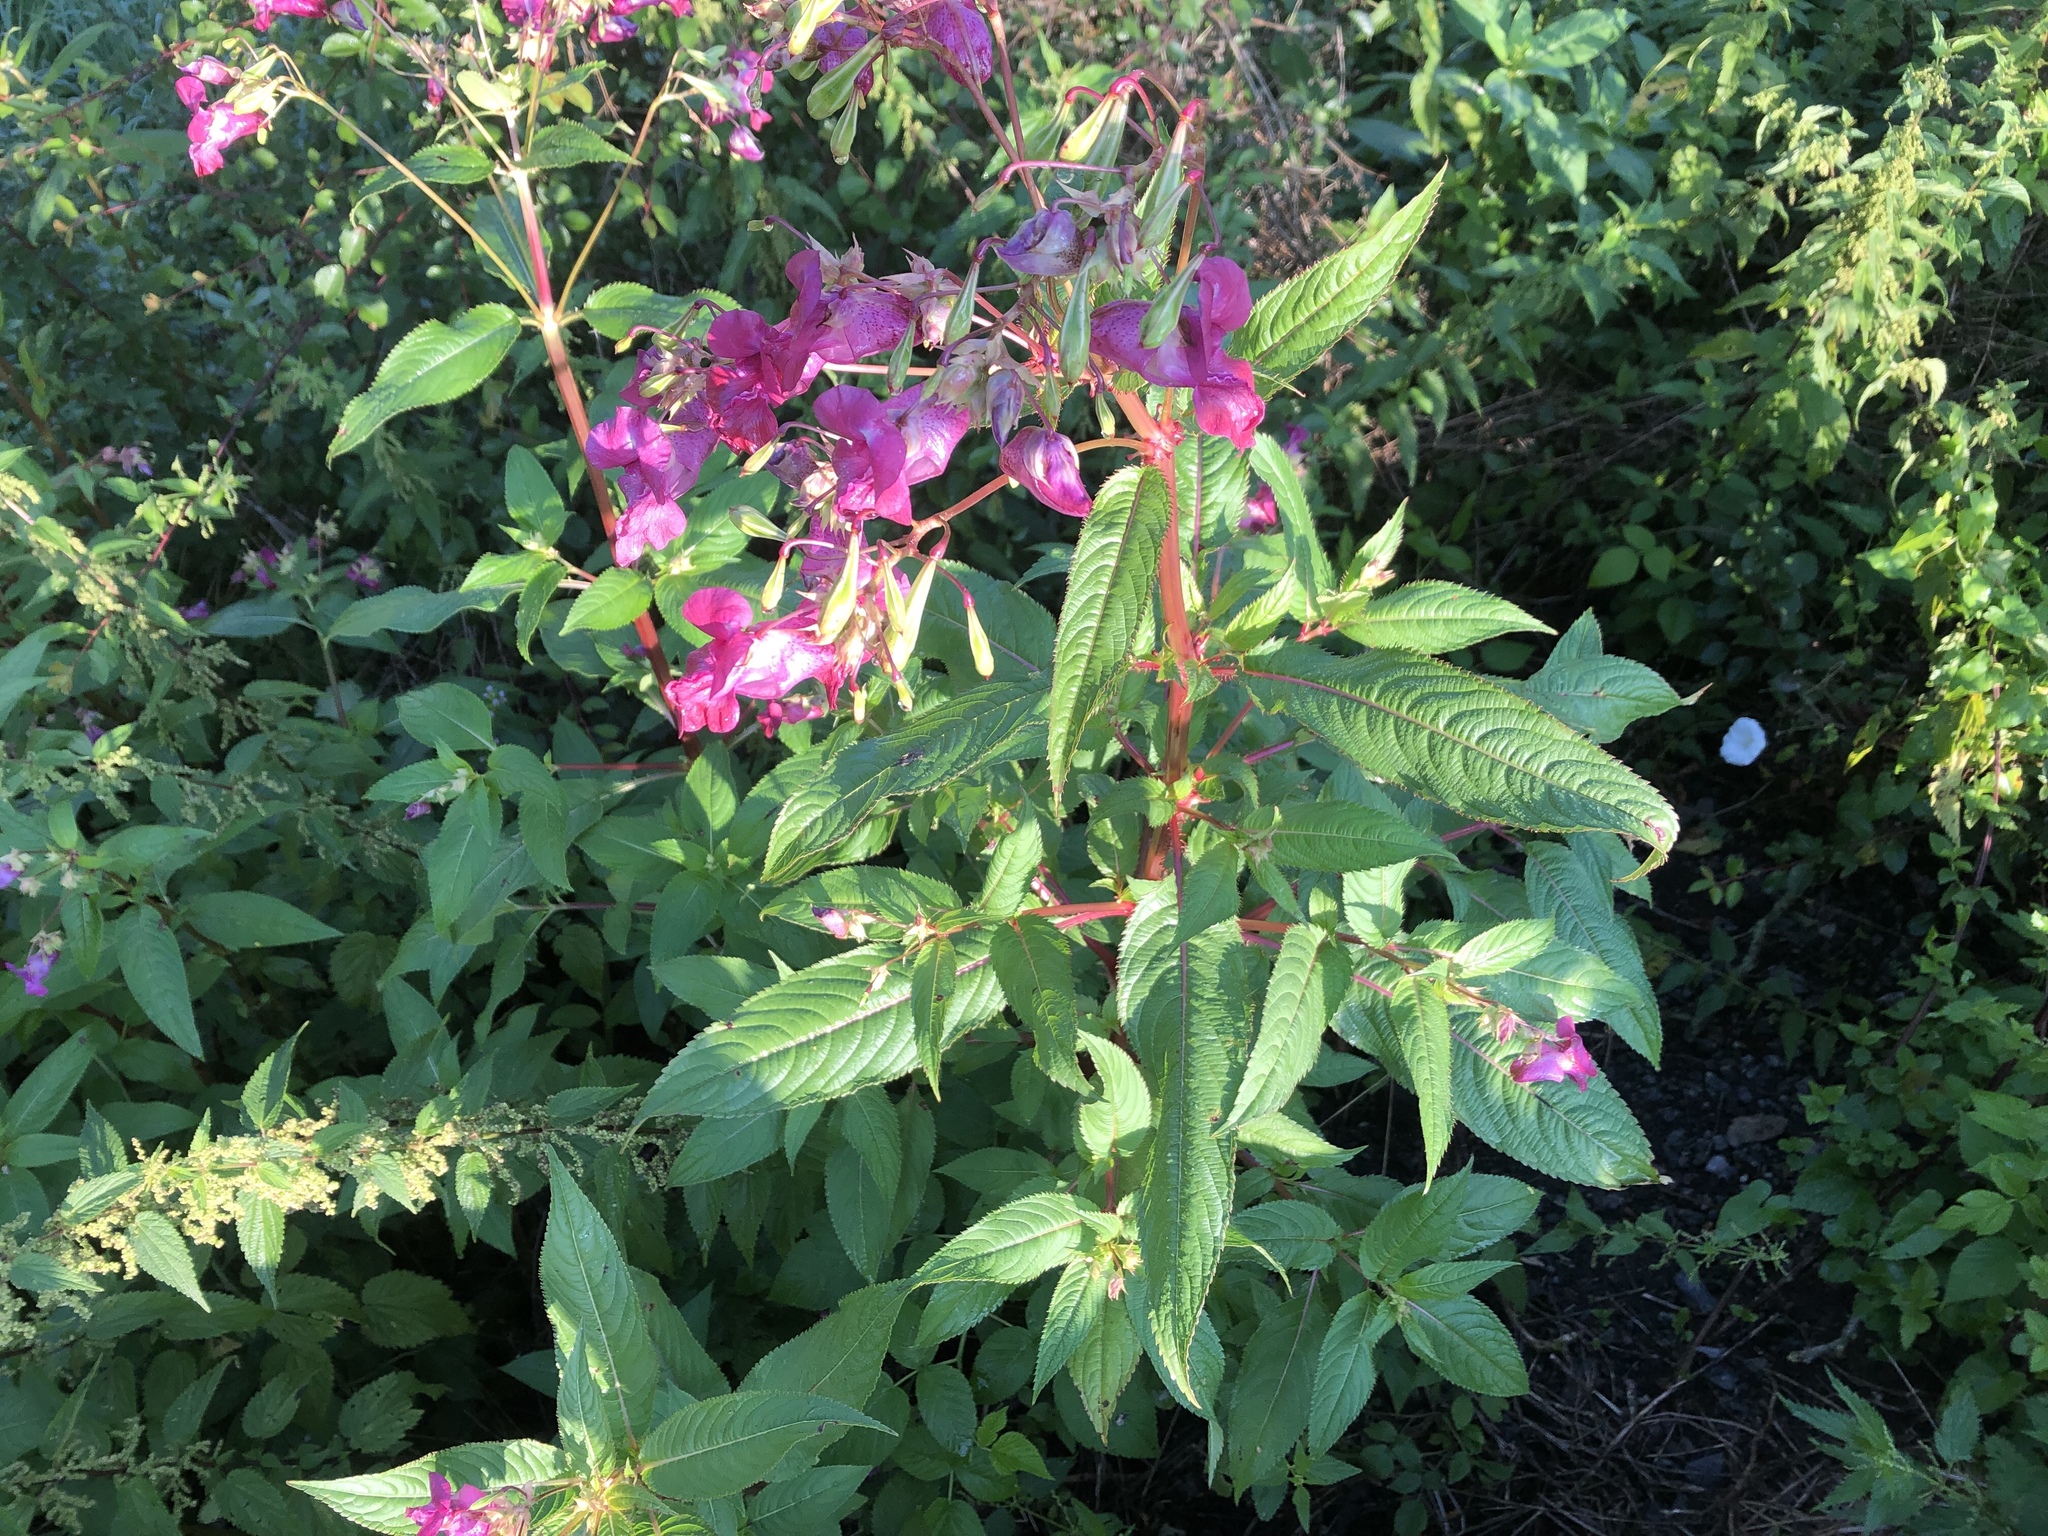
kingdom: Plantae
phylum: Tracheophyta
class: Magnoliopsida
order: Ericales
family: Balsaminaceae
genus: Impatiens
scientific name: Impatiens glandulifera
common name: Himalayan balsam
